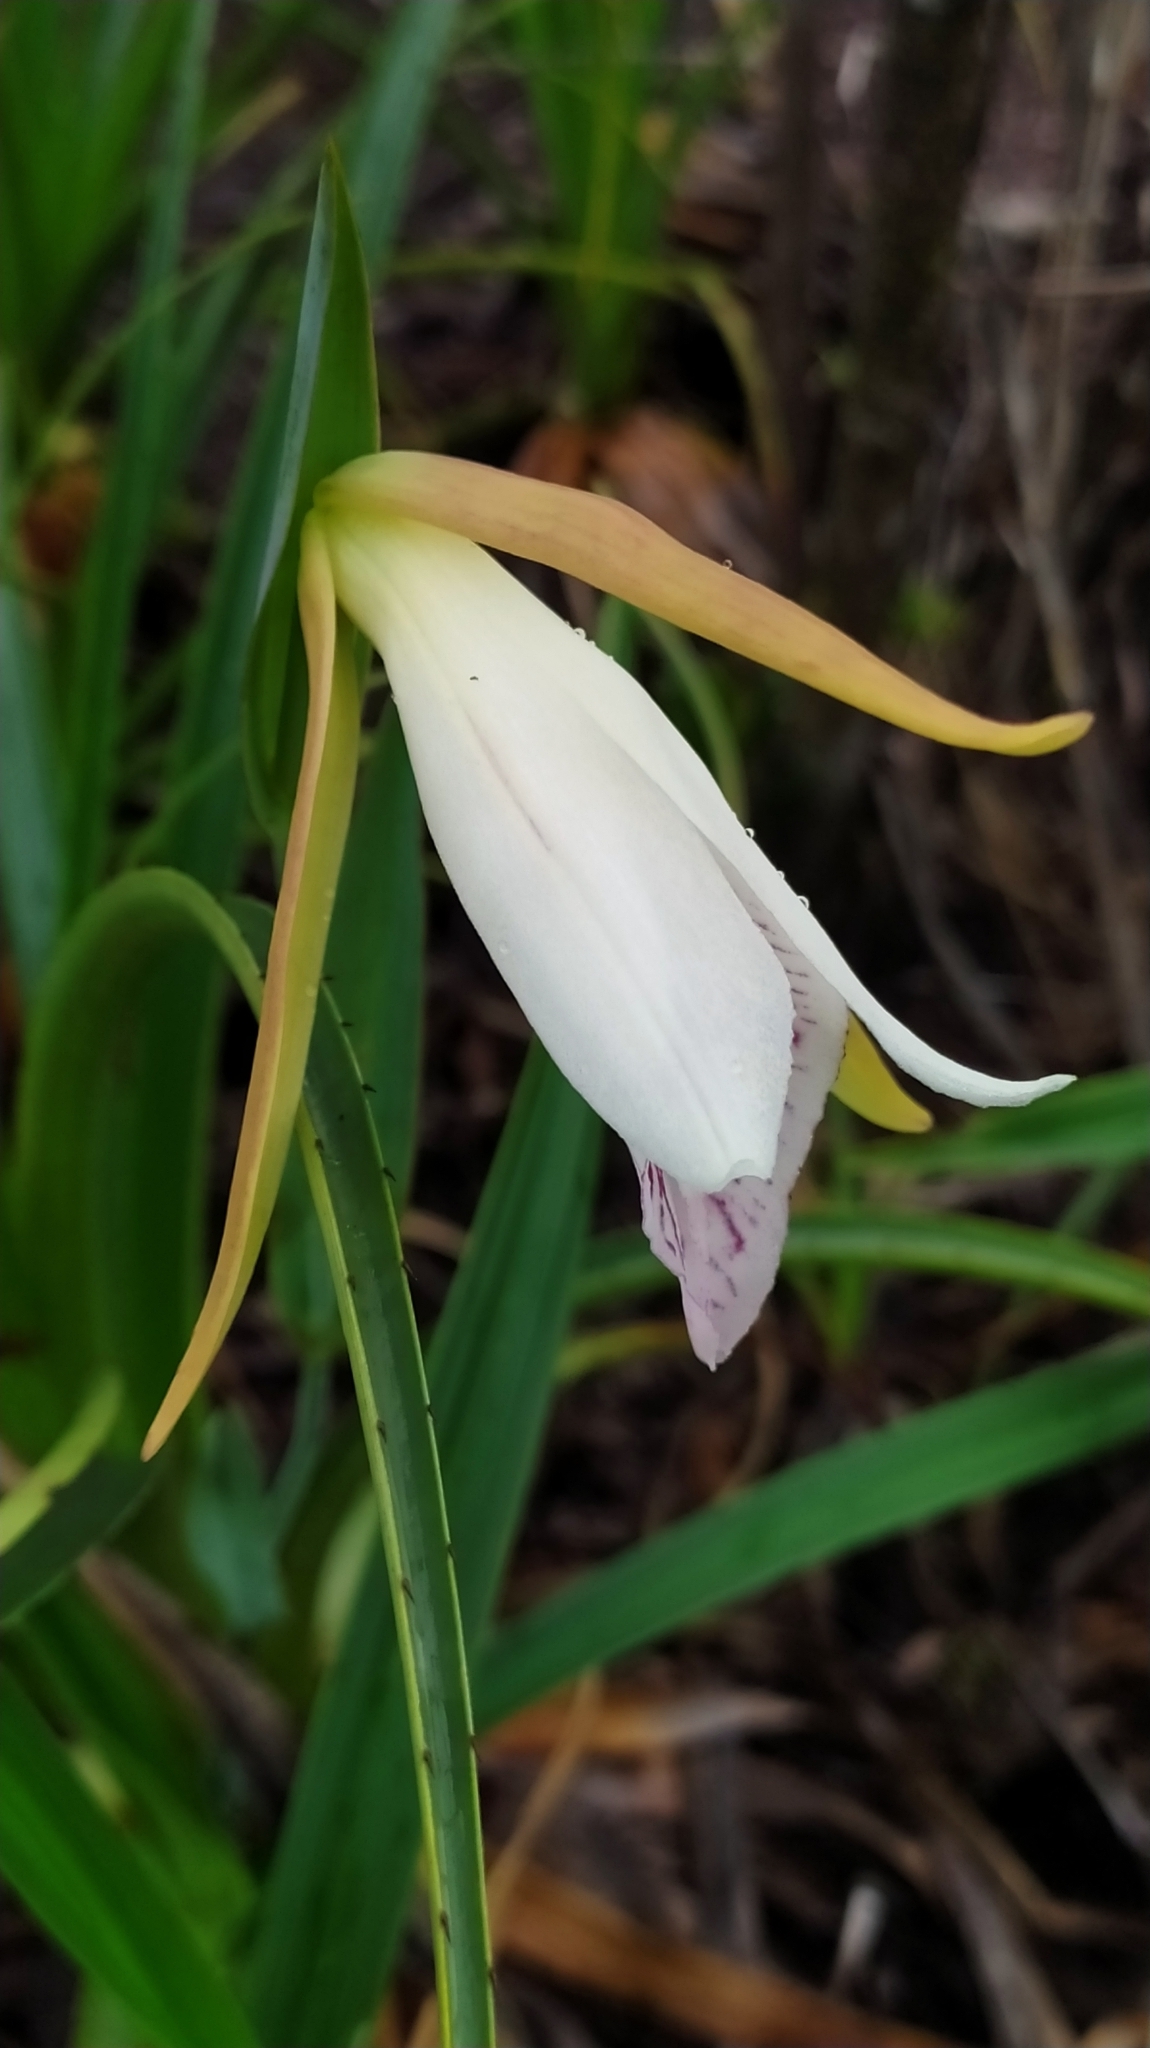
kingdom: Plantae
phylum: Tracheophyta
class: Liliopsida
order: Asparagales
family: Orchidaceae
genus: Cleistes
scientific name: Cleistes grandiflora
